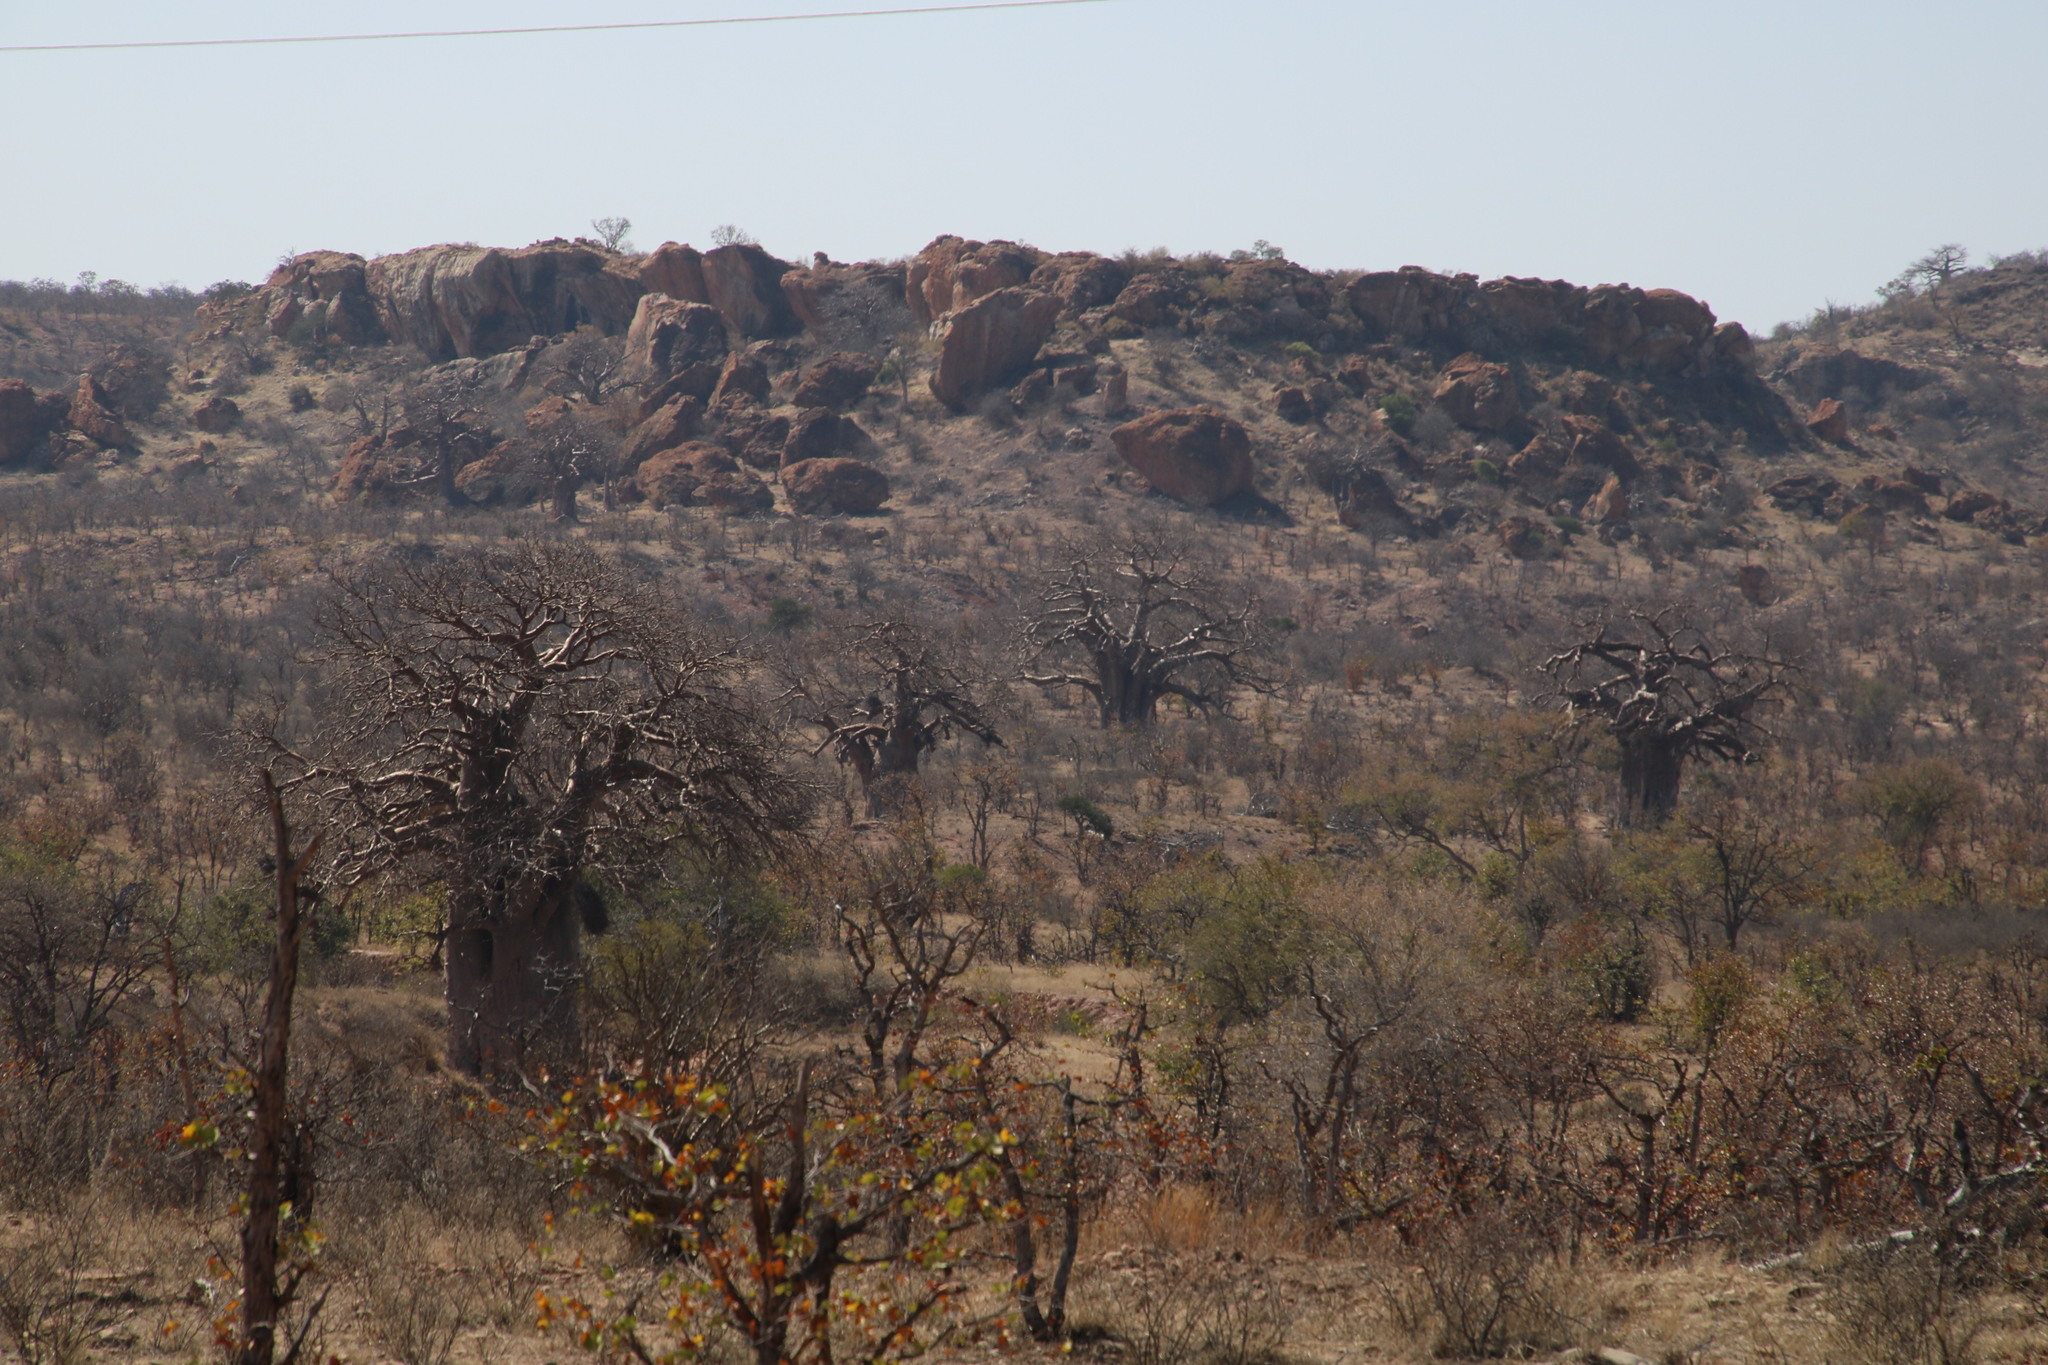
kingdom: Plantae
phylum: Tracheophyta
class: Magnoliopsida
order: Malvales
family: Malvaceae
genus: Adansonia
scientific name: Adansonia digitata
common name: Dead-rat-tree
